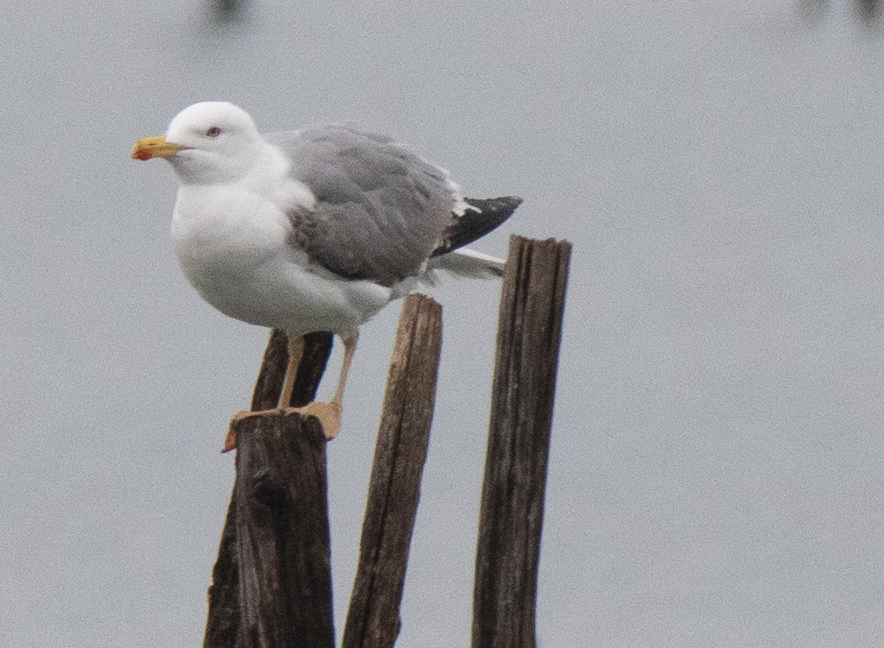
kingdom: Animalia
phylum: Chordata
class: Aves
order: Charadriiformes
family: Laridae
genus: Larus
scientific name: Larus michahellis
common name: Yellow-legged gull
